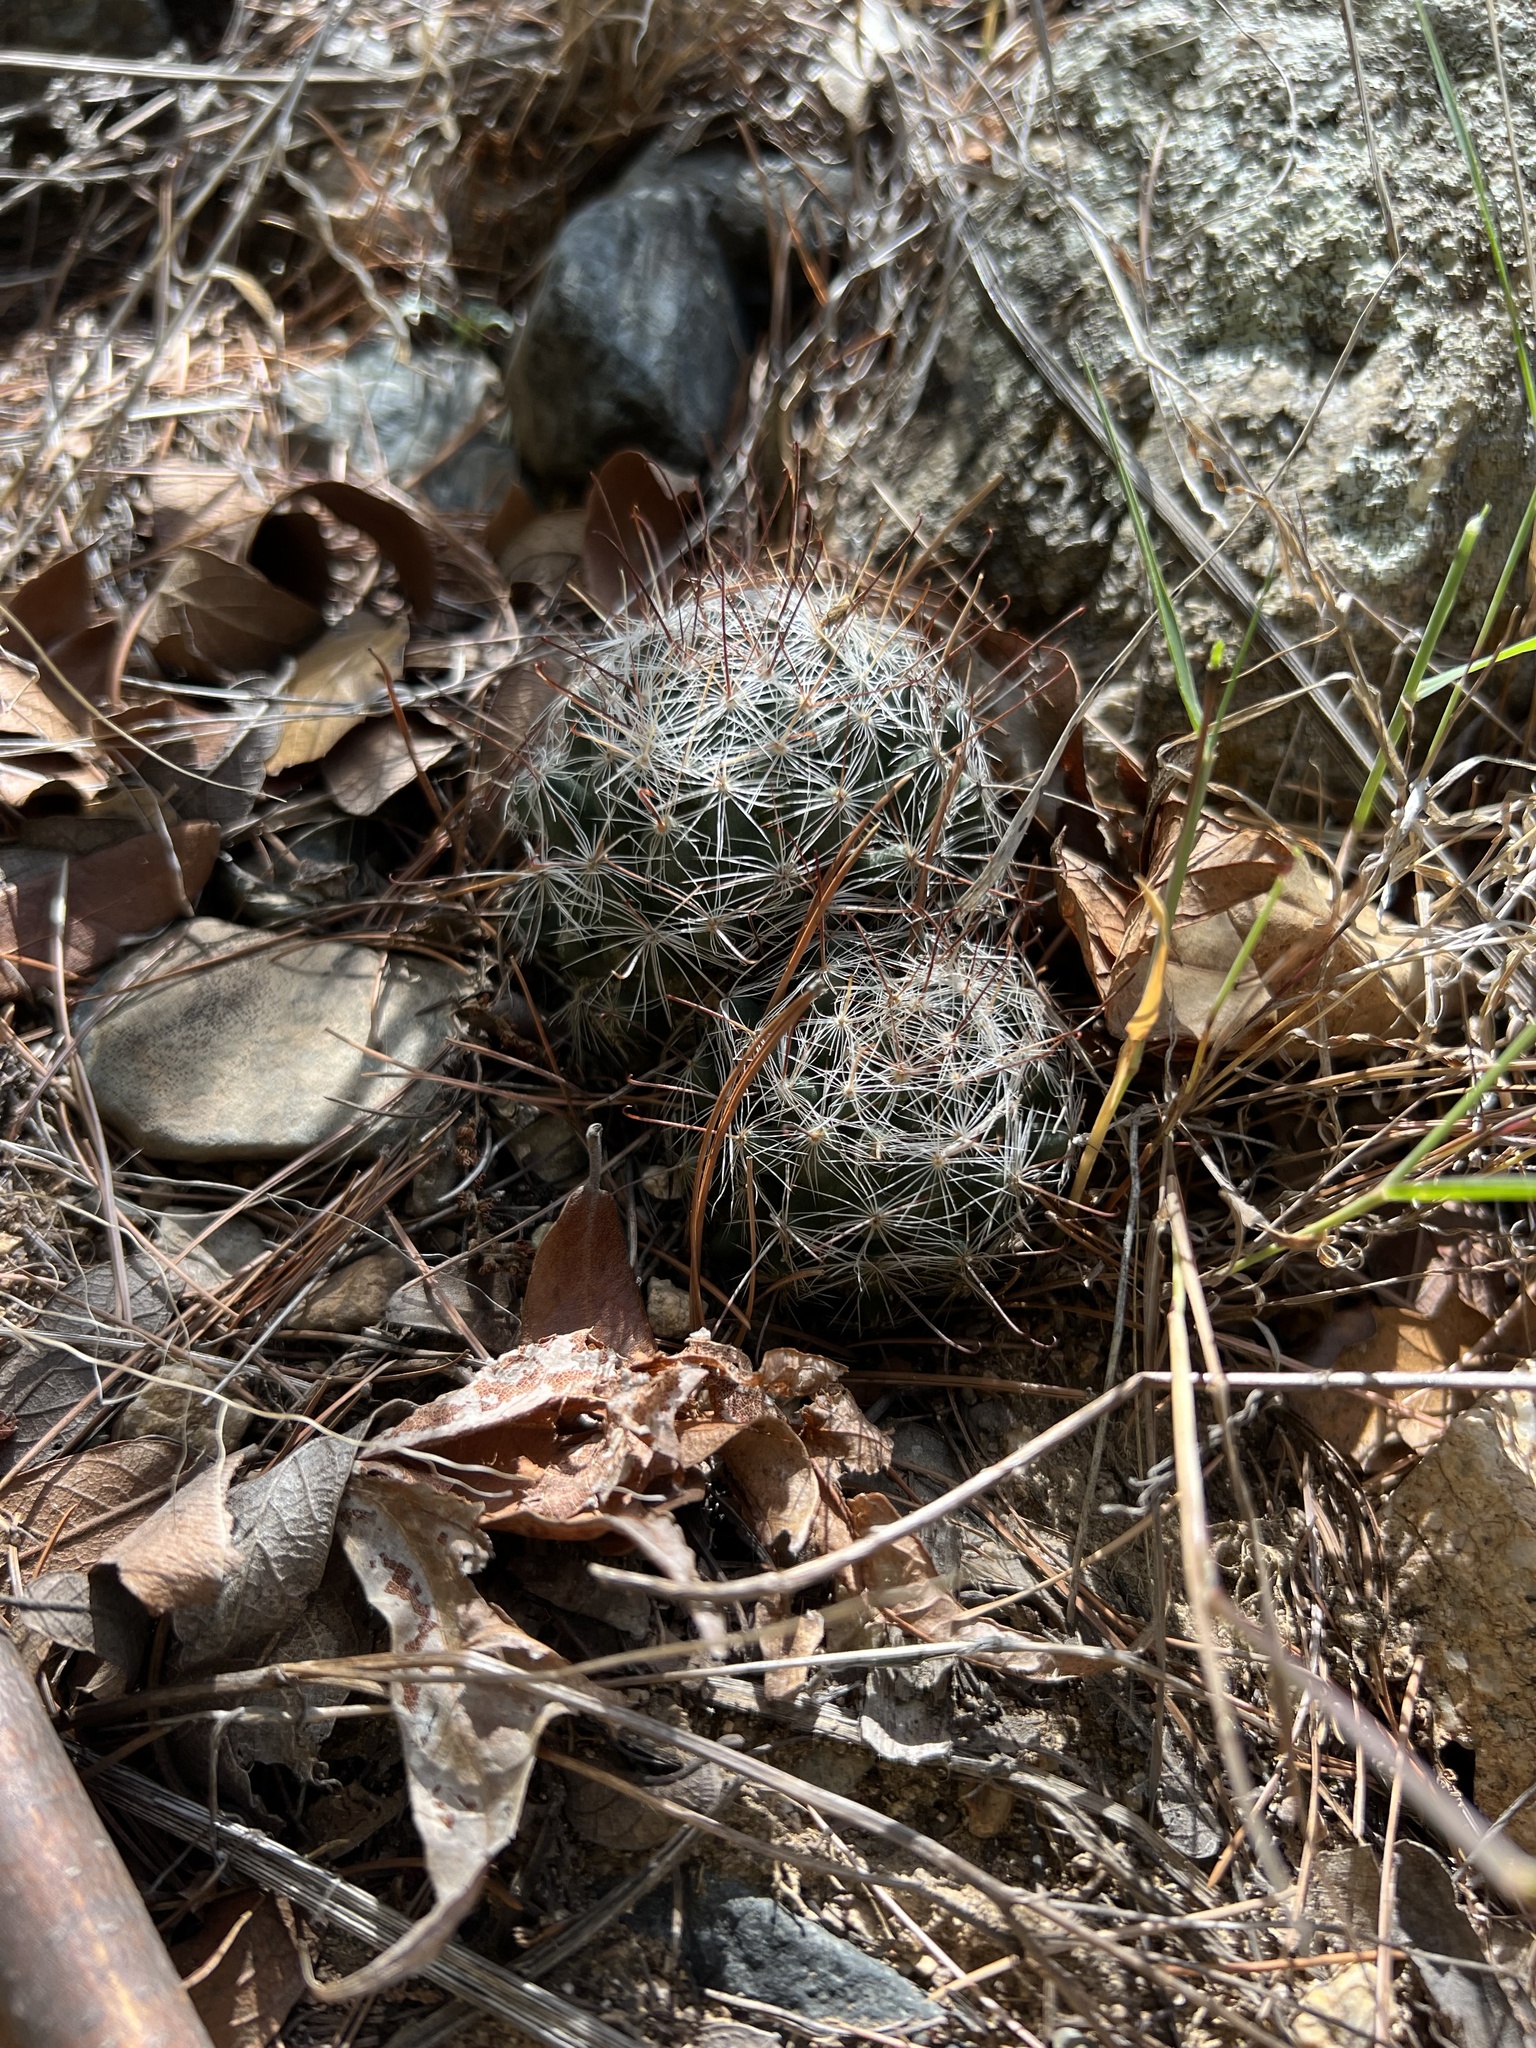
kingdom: Plantae
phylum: Tracheophyta
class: Magnoliopsida
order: Caryophyllales
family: Cactaceae
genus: Cochemiea
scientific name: Cochemiea wrightii
